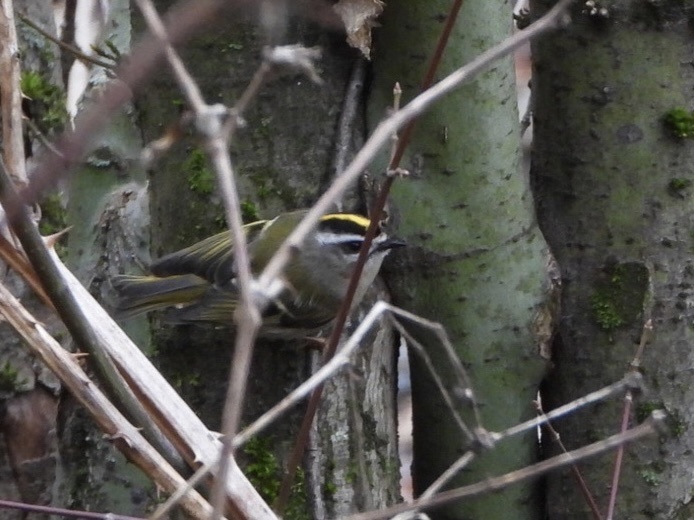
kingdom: Animalia
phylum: Chordata
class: Aves
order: Passeriformes
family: Regulidae
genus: Regulus
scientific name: Regulus satrapa
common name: Golden-crowned kinglet
